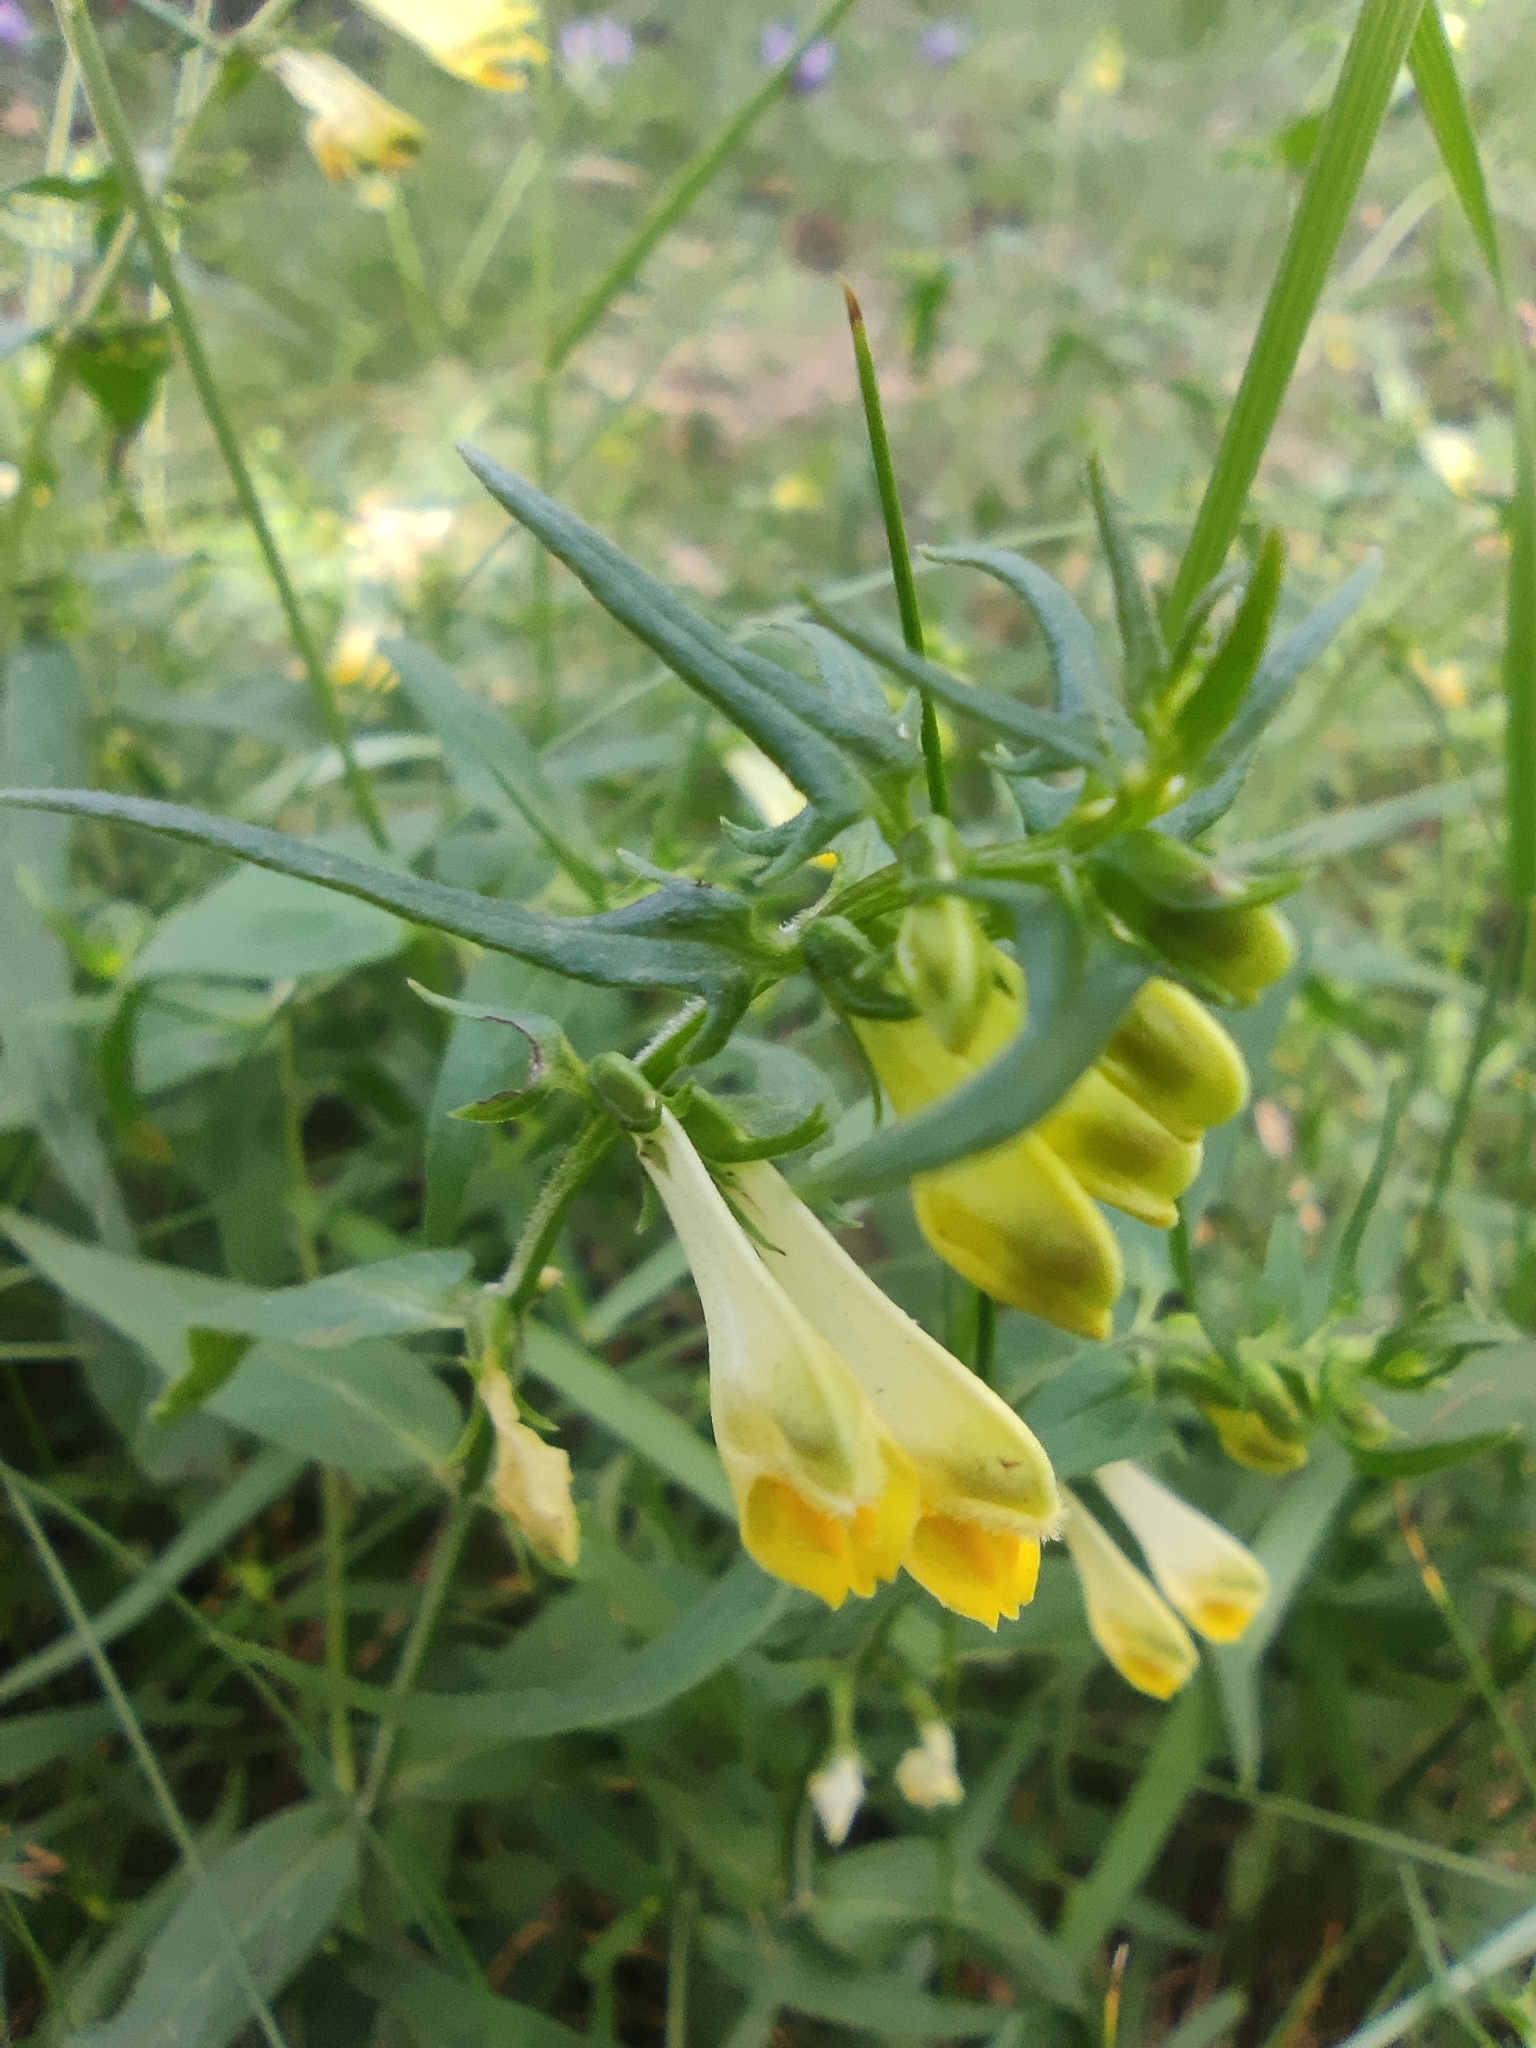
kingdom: Plantae
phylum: Tracheophyta
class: Magnoliopsida
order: Lamiales
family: Orobanchaceae
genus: Melampyrum
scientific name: Melampyrum pratense
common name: Common cow-wheat
